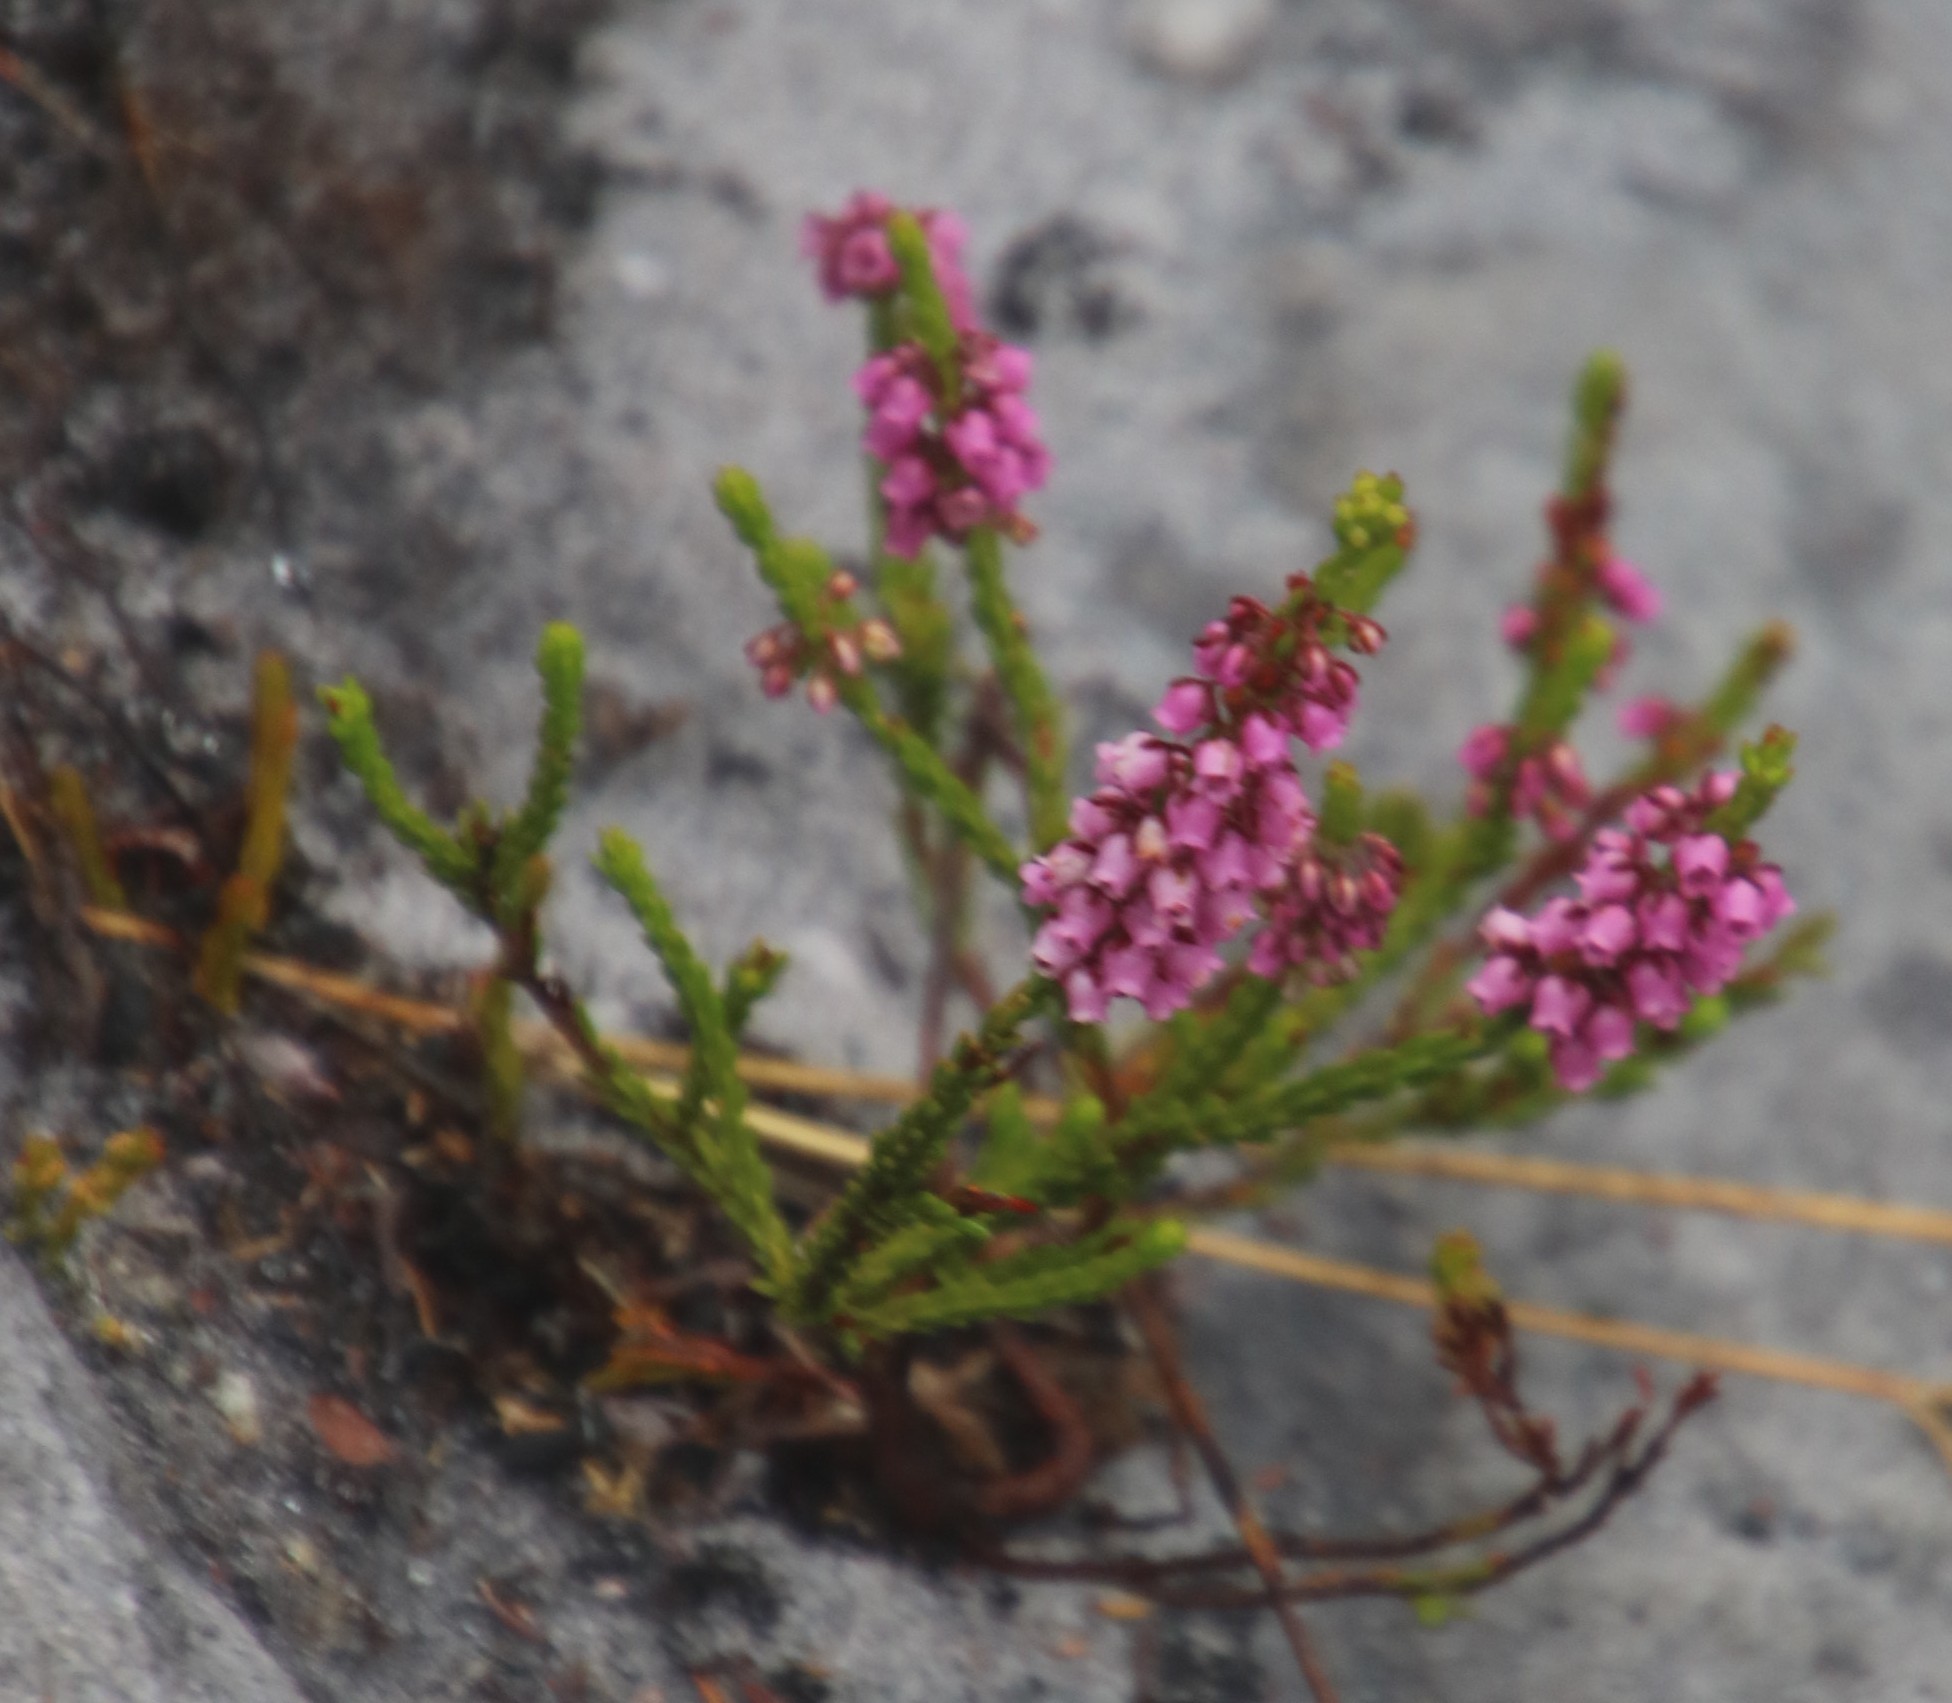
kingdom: Plantae
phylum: Tracheophyta
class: Magnoliopsida
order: Ericales
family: Ericaceae
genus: Erica
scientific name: Erica pulchella
